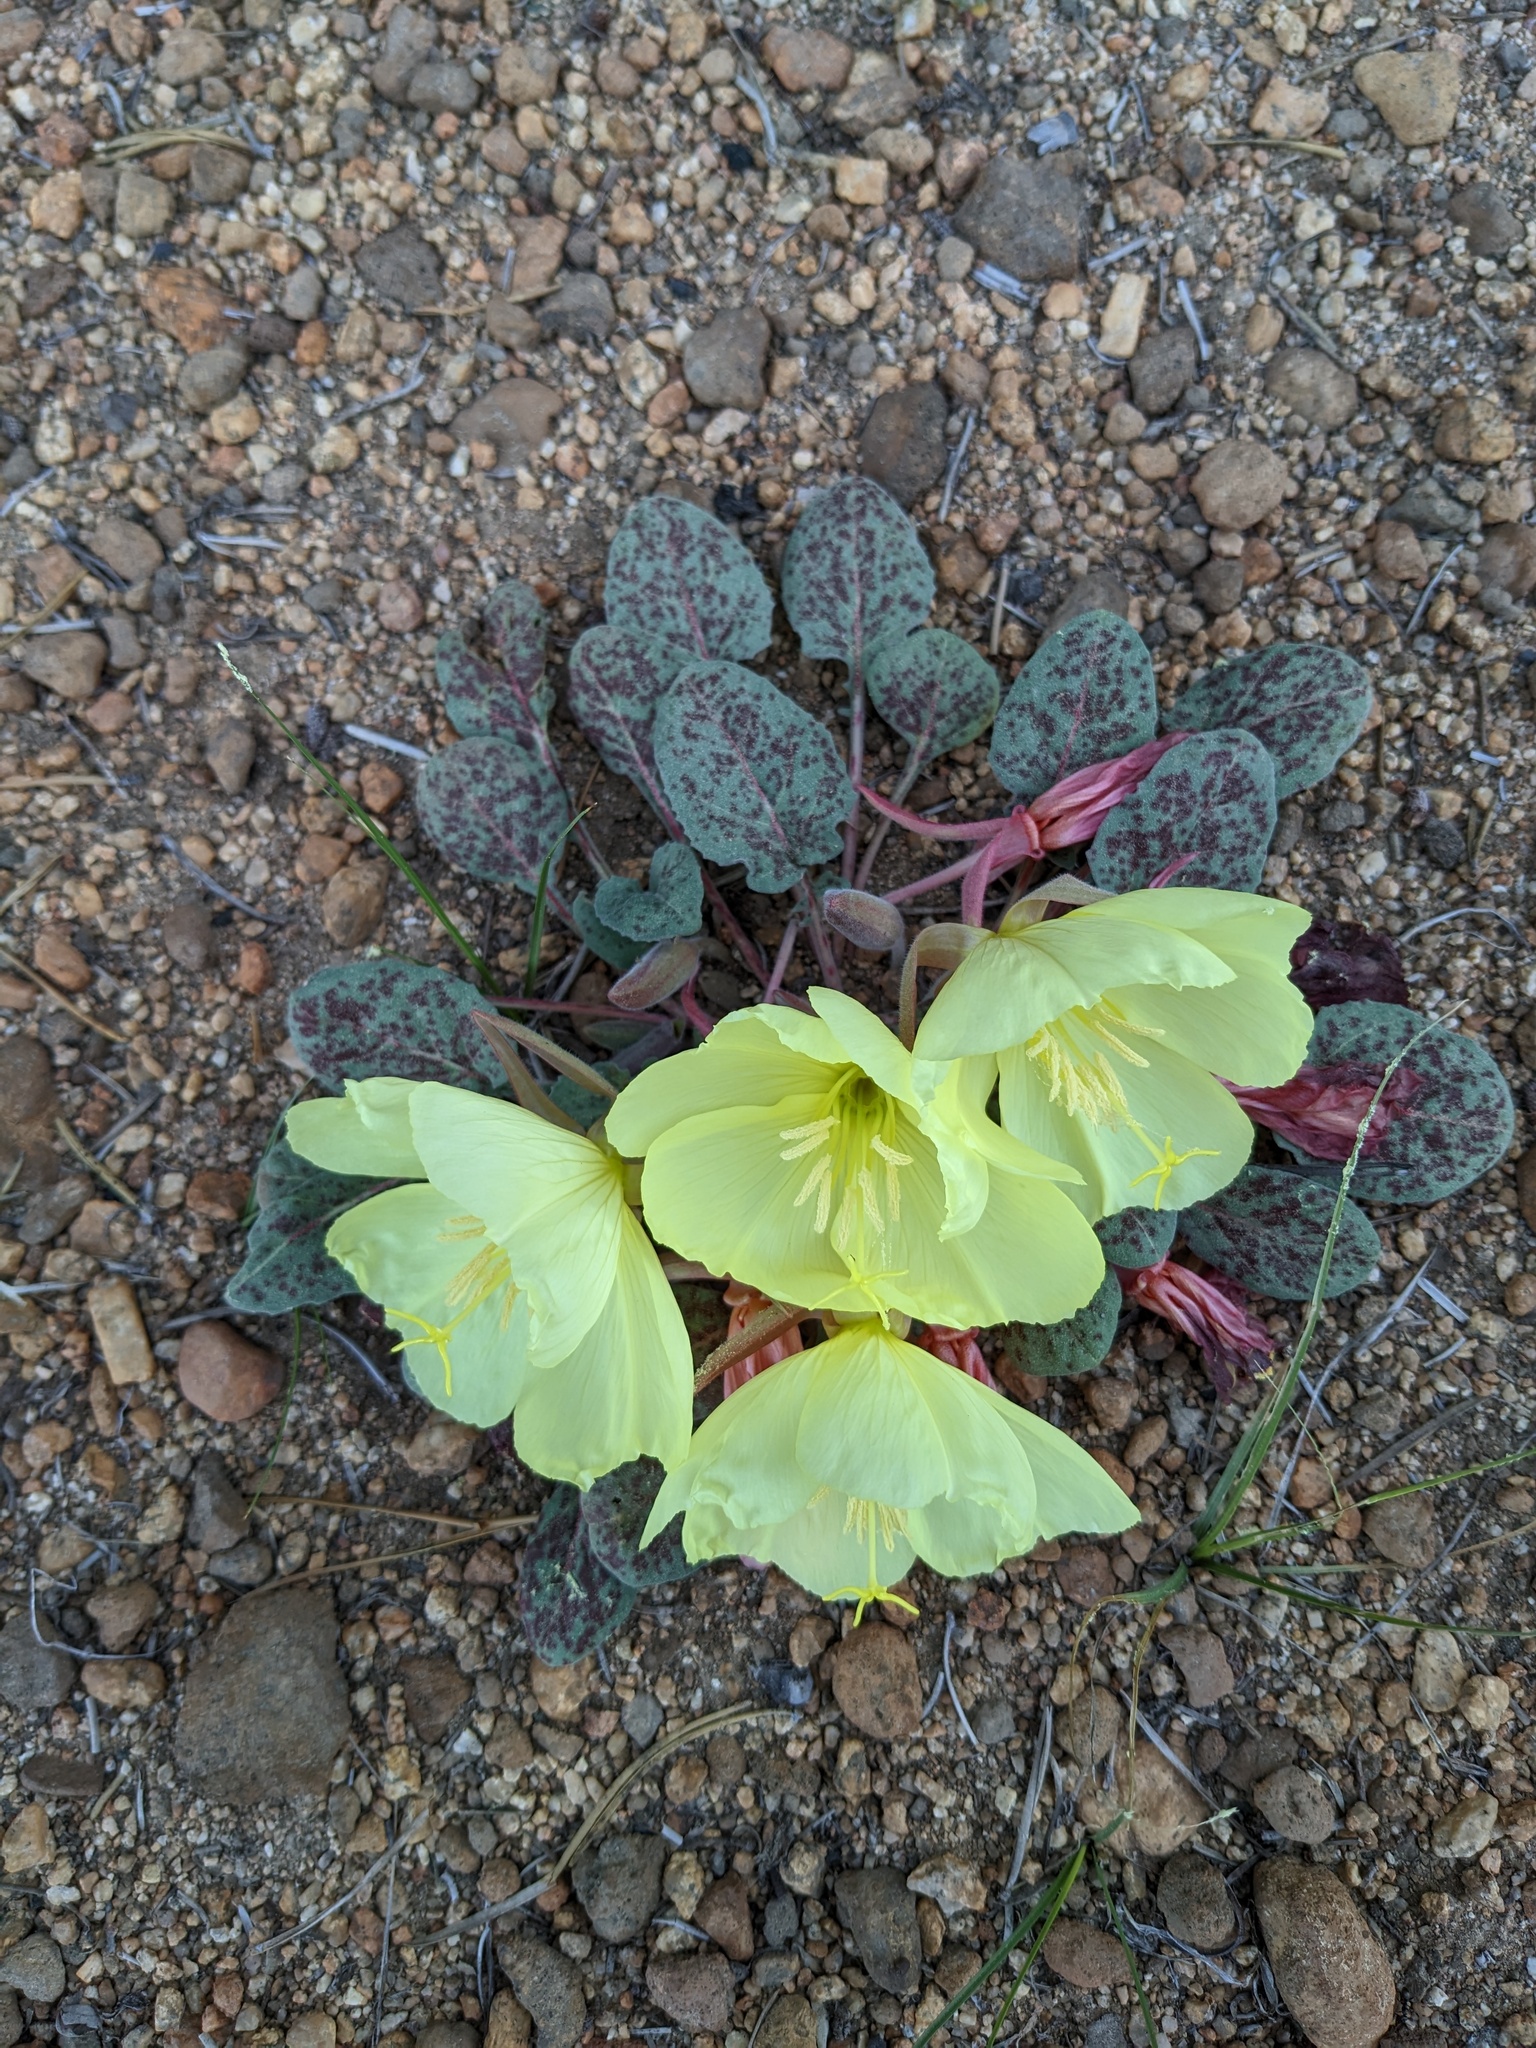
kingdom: Plantae
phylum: Tracheophyta
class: Magnoliopsida
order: Myrtales
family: Onagraceae
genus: Oenothera
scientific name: Oenothera xylocarpa
